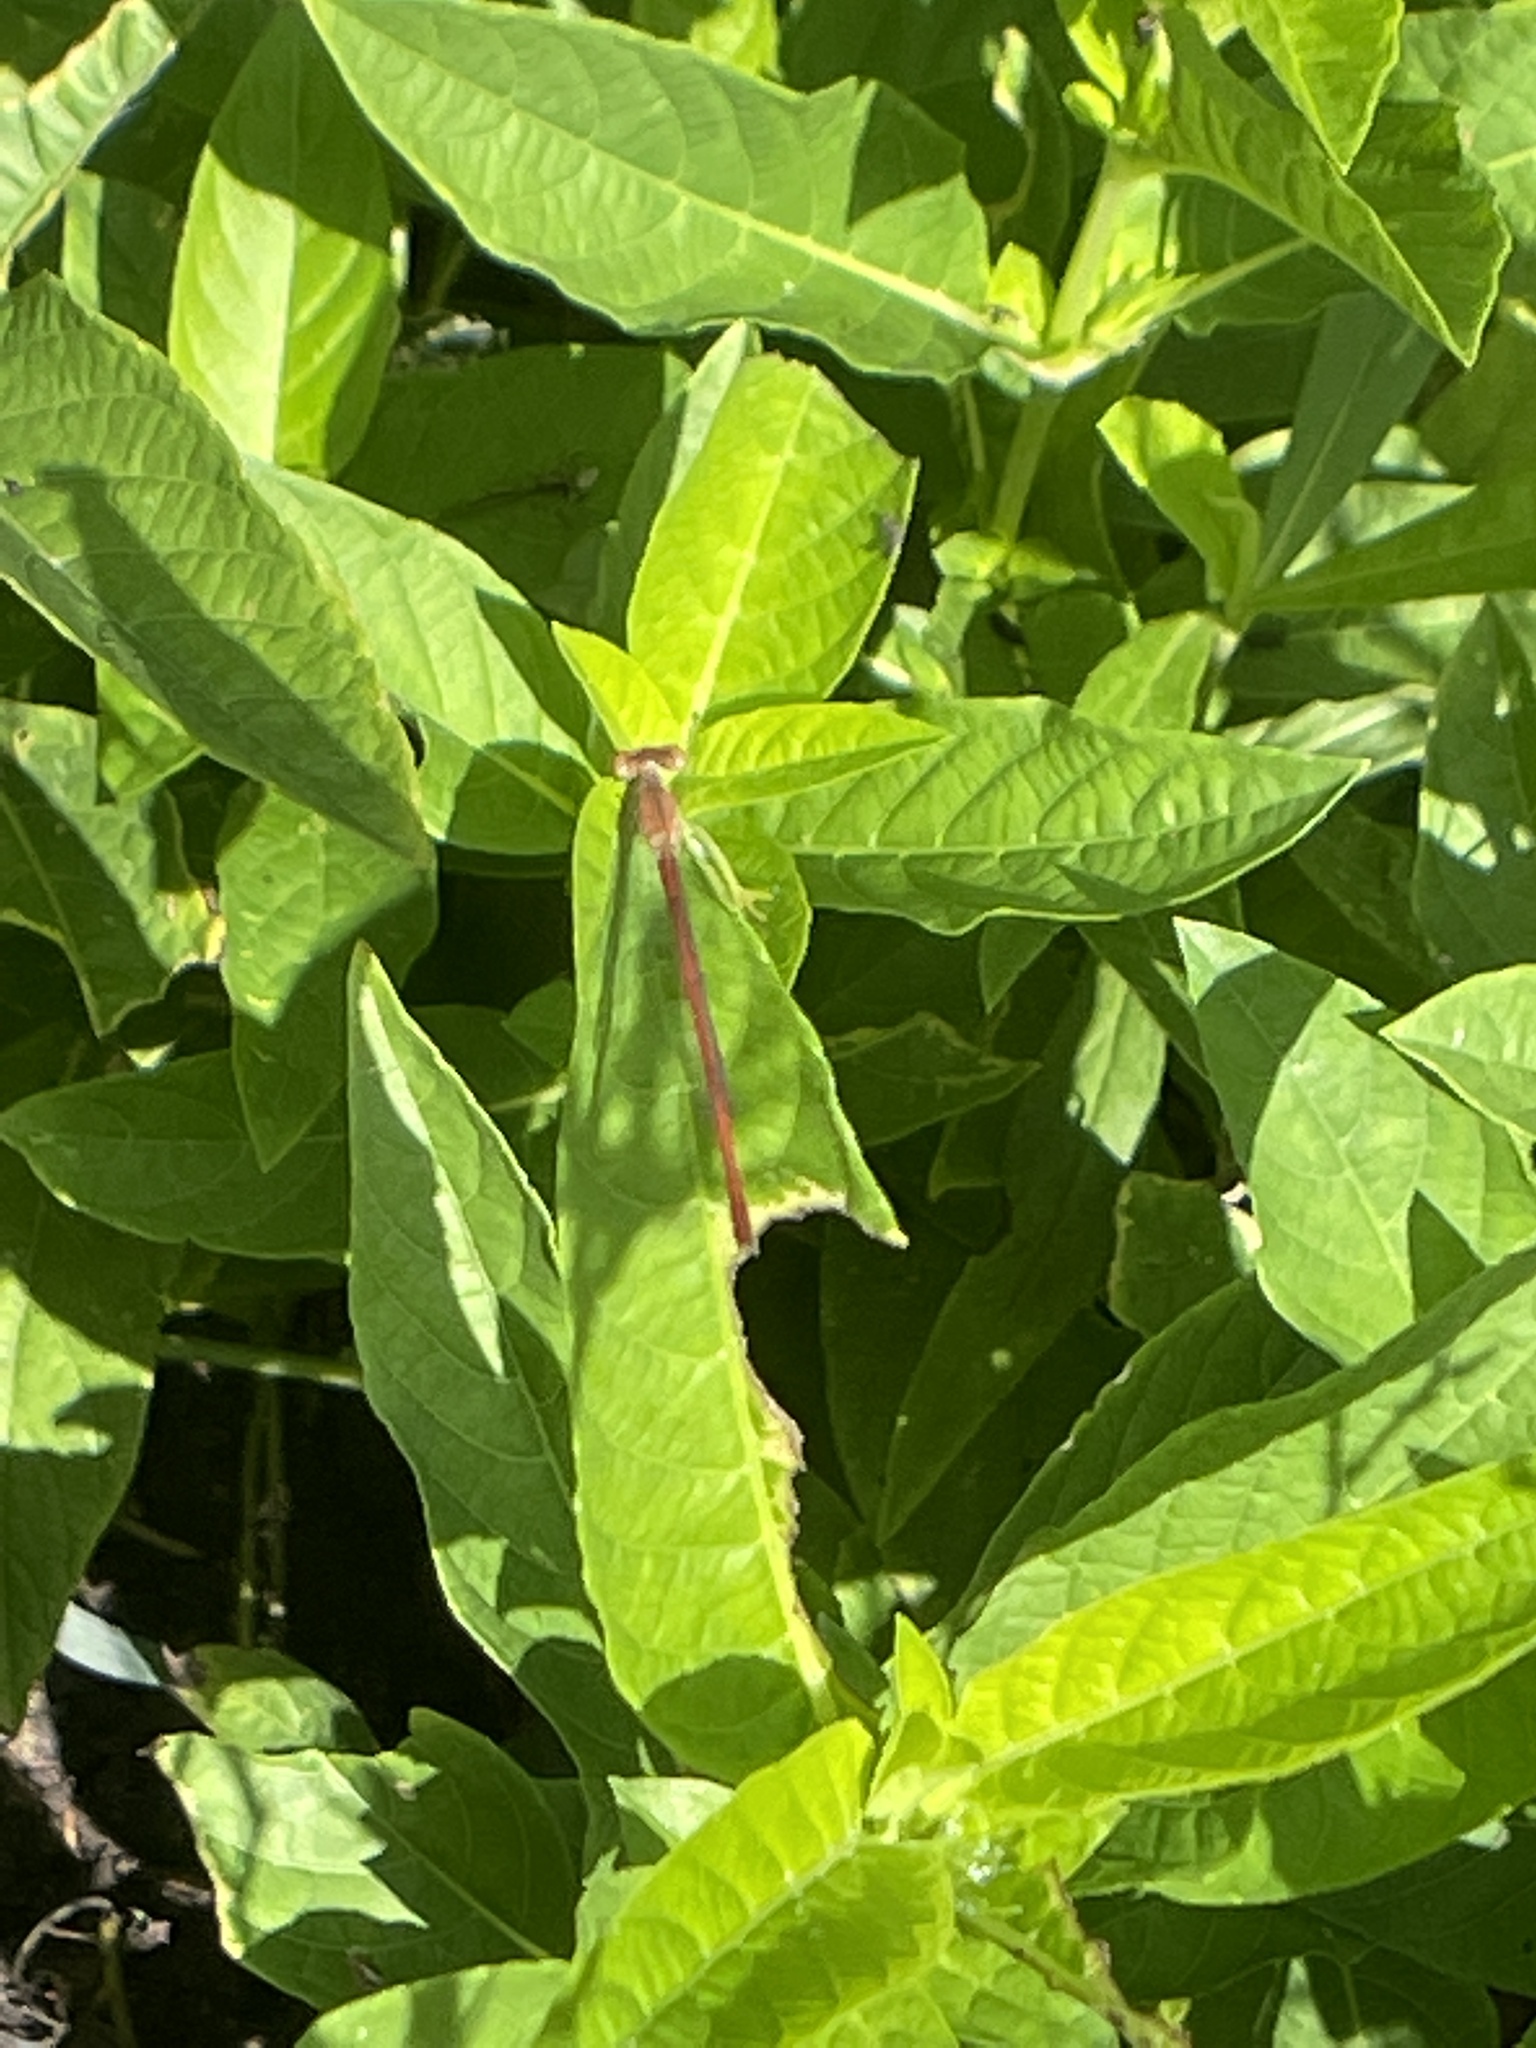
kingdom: Animalia
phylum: Arthropoda
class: Insecta
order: Odonata
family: Coenagrionidae
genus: Telebasis
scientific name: Telebasis salva
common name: Desert firetail
